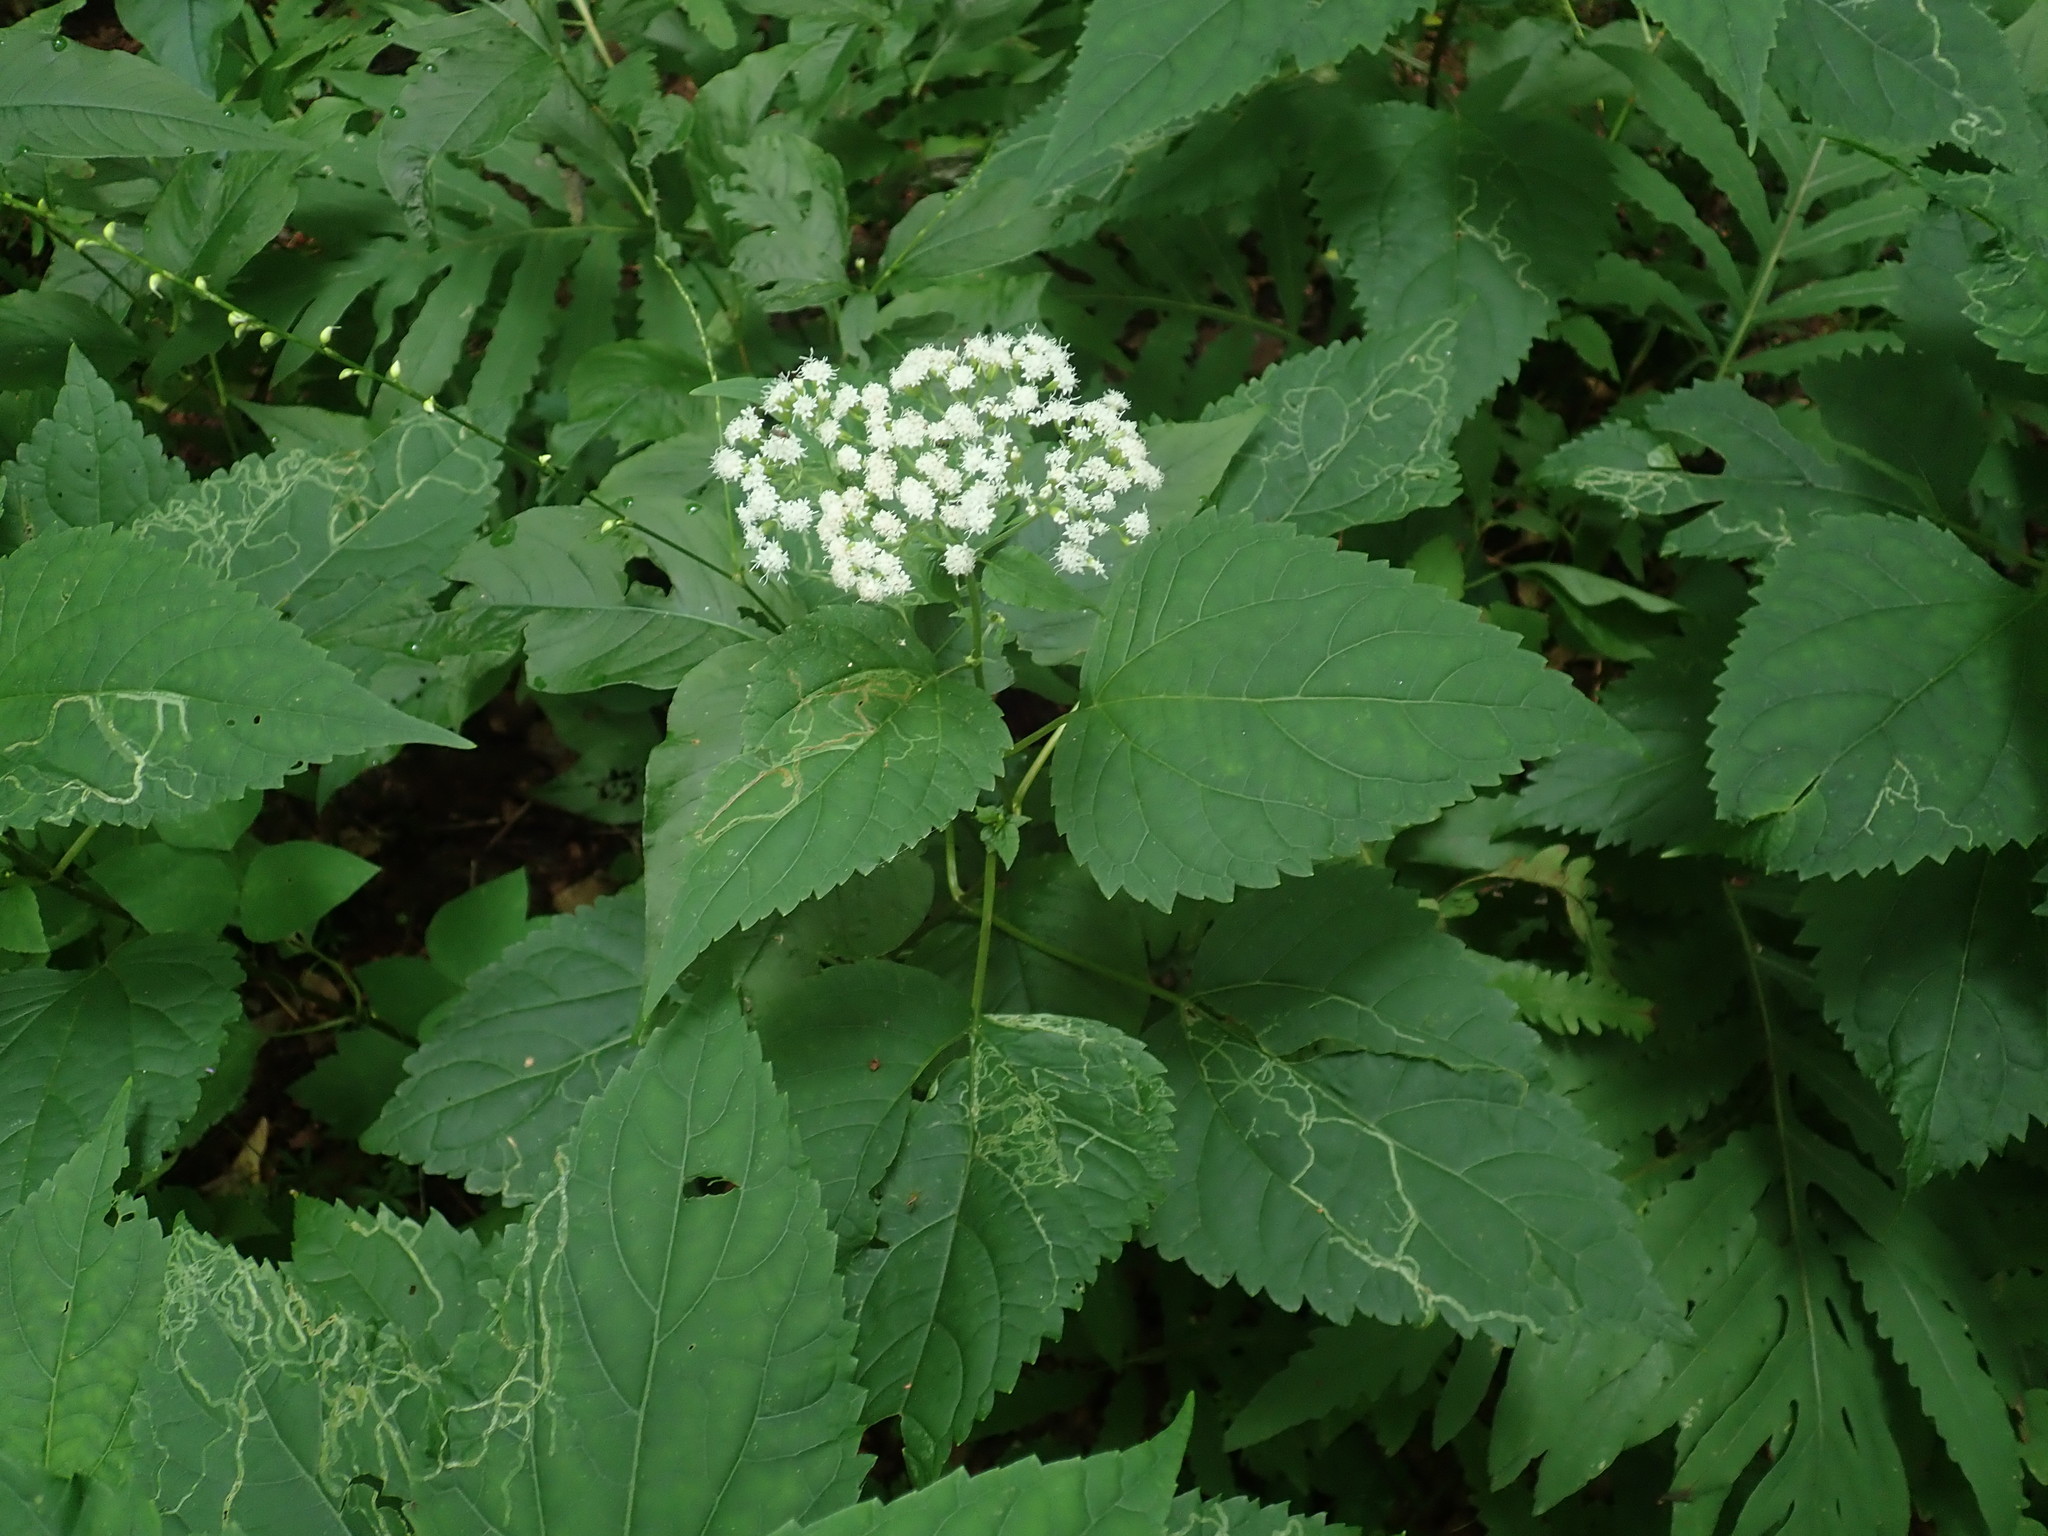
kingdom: Plantae
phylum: Tracheophyta
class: Magnoliopsida
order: Asterales
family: Asteraceae
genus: Ageratina
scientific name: Ageratina altissima
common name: White snakeroot
